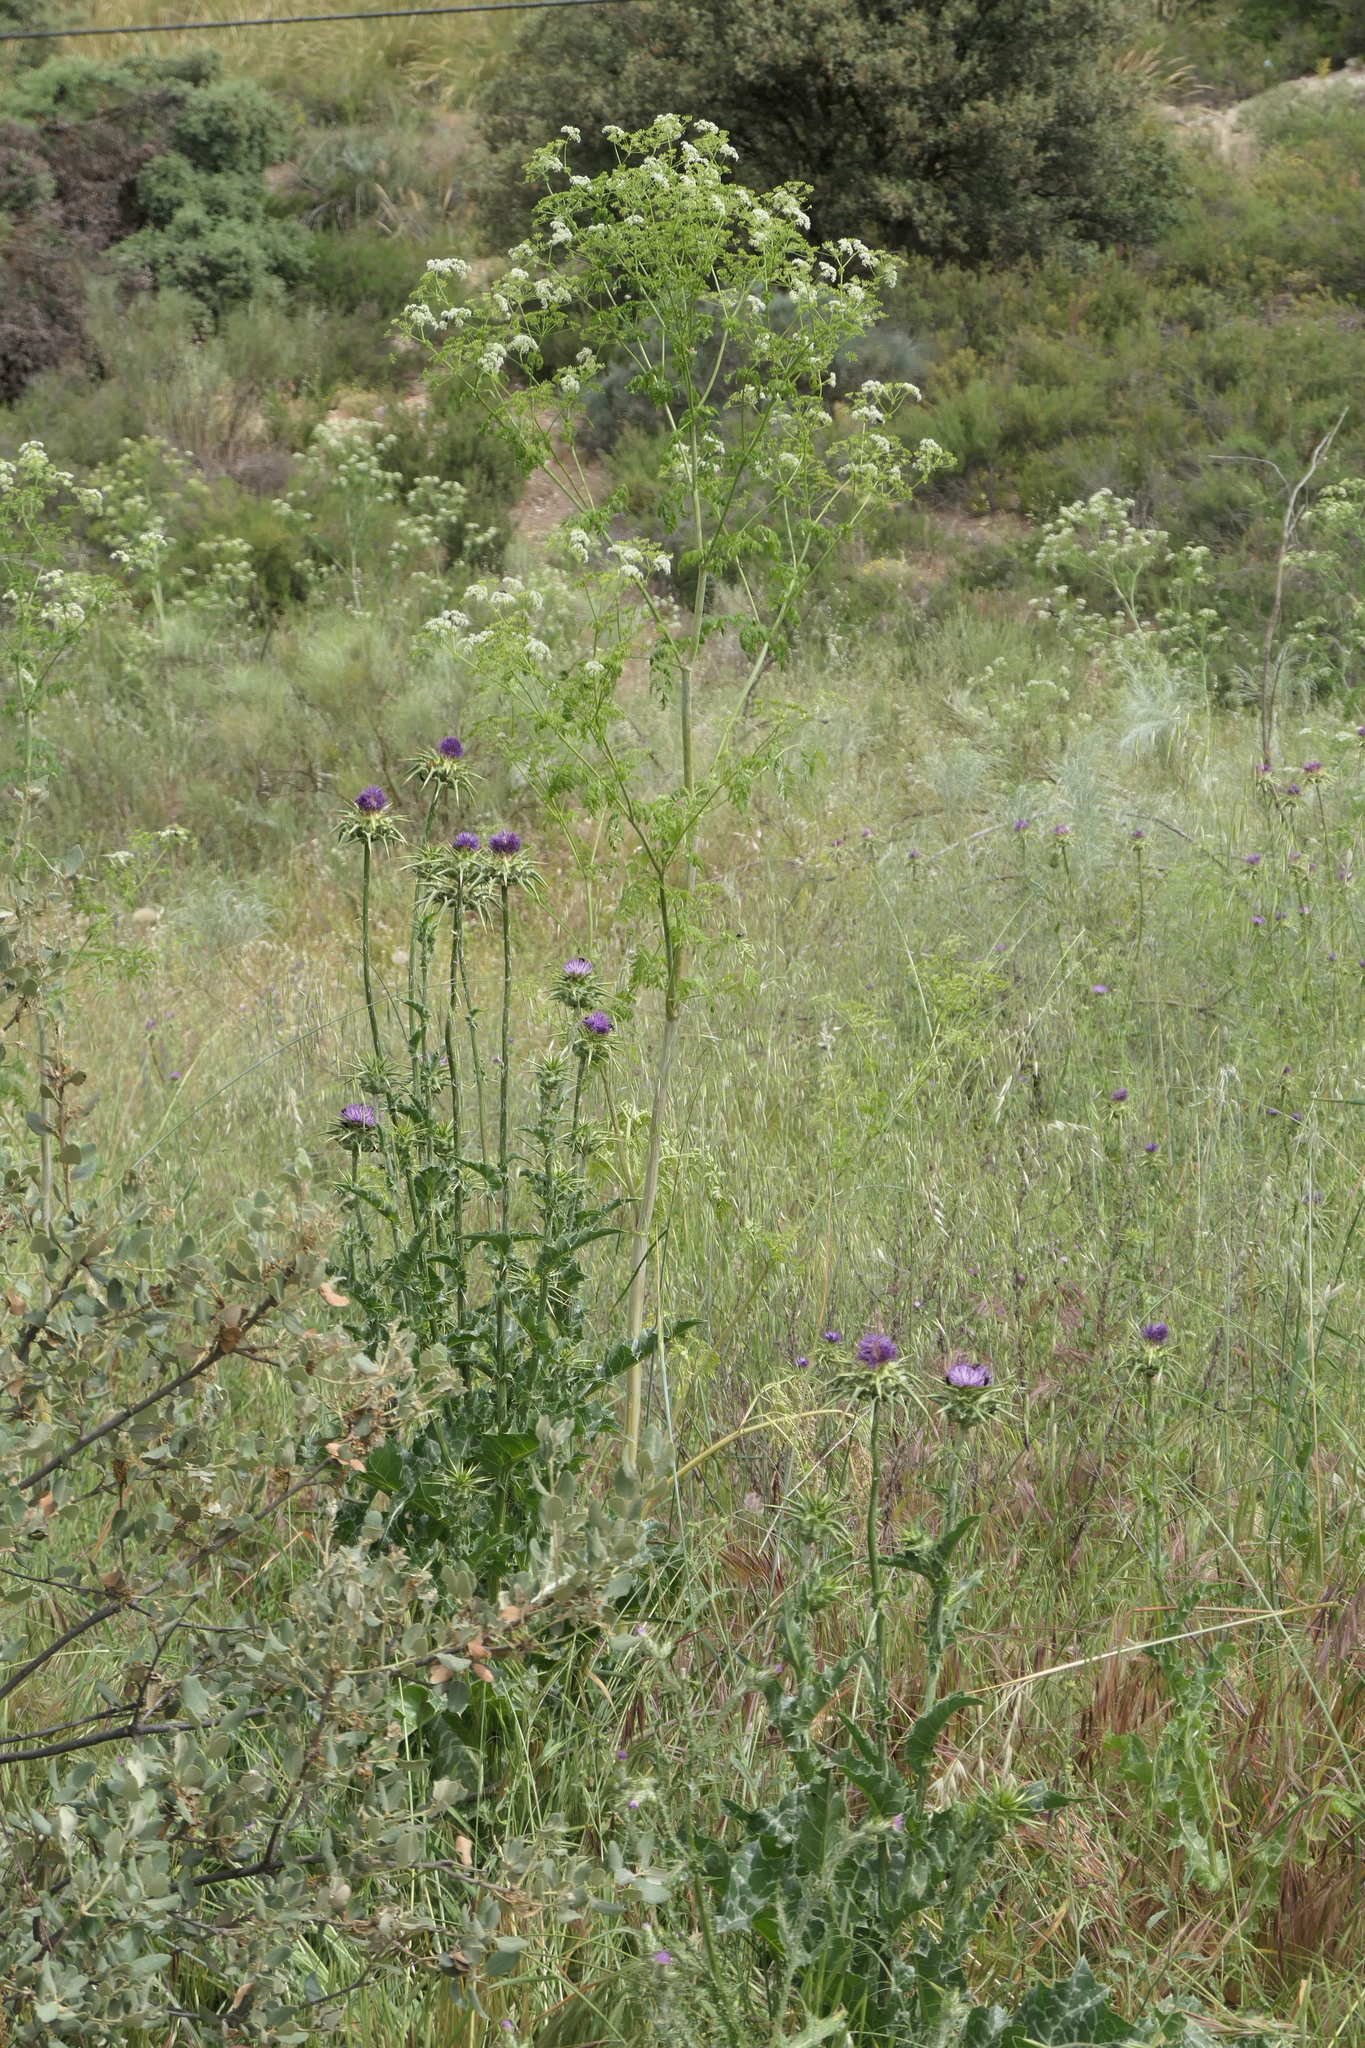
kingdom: Plantae
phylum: Tracheophyta
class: Magnoliopsida
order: Apiales
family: Apiaceae
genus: Conium
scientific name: Conium maculatum
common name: Hemlock
